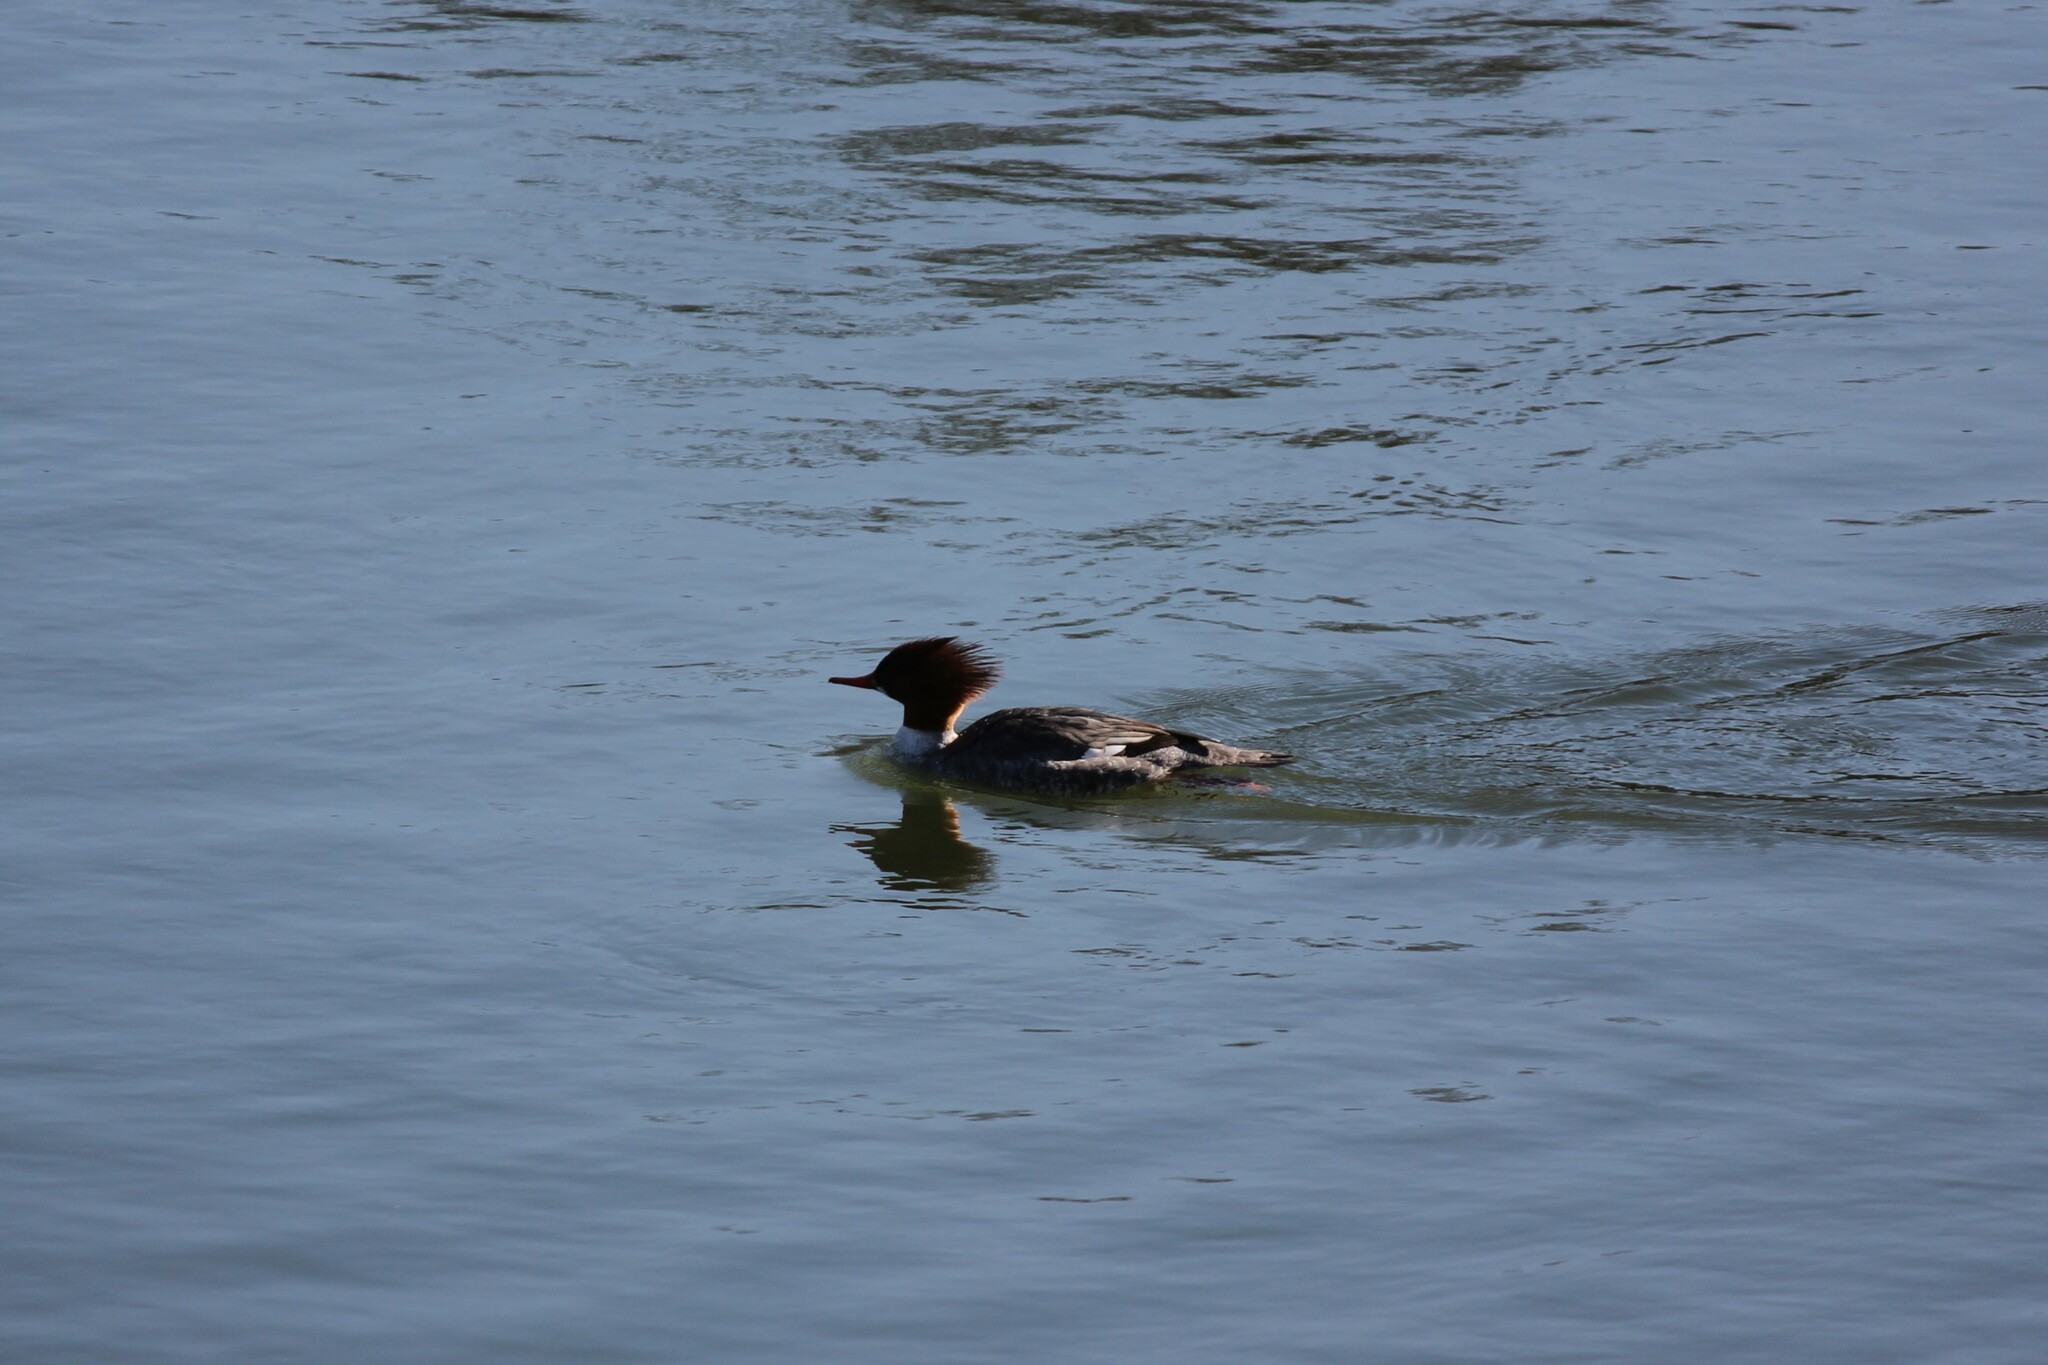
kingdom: Animalia
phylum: Chordata
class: Aves
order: Anseriformes
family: Anatidae
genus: Mergus
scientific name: Mergus merganser
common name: Common merganser
